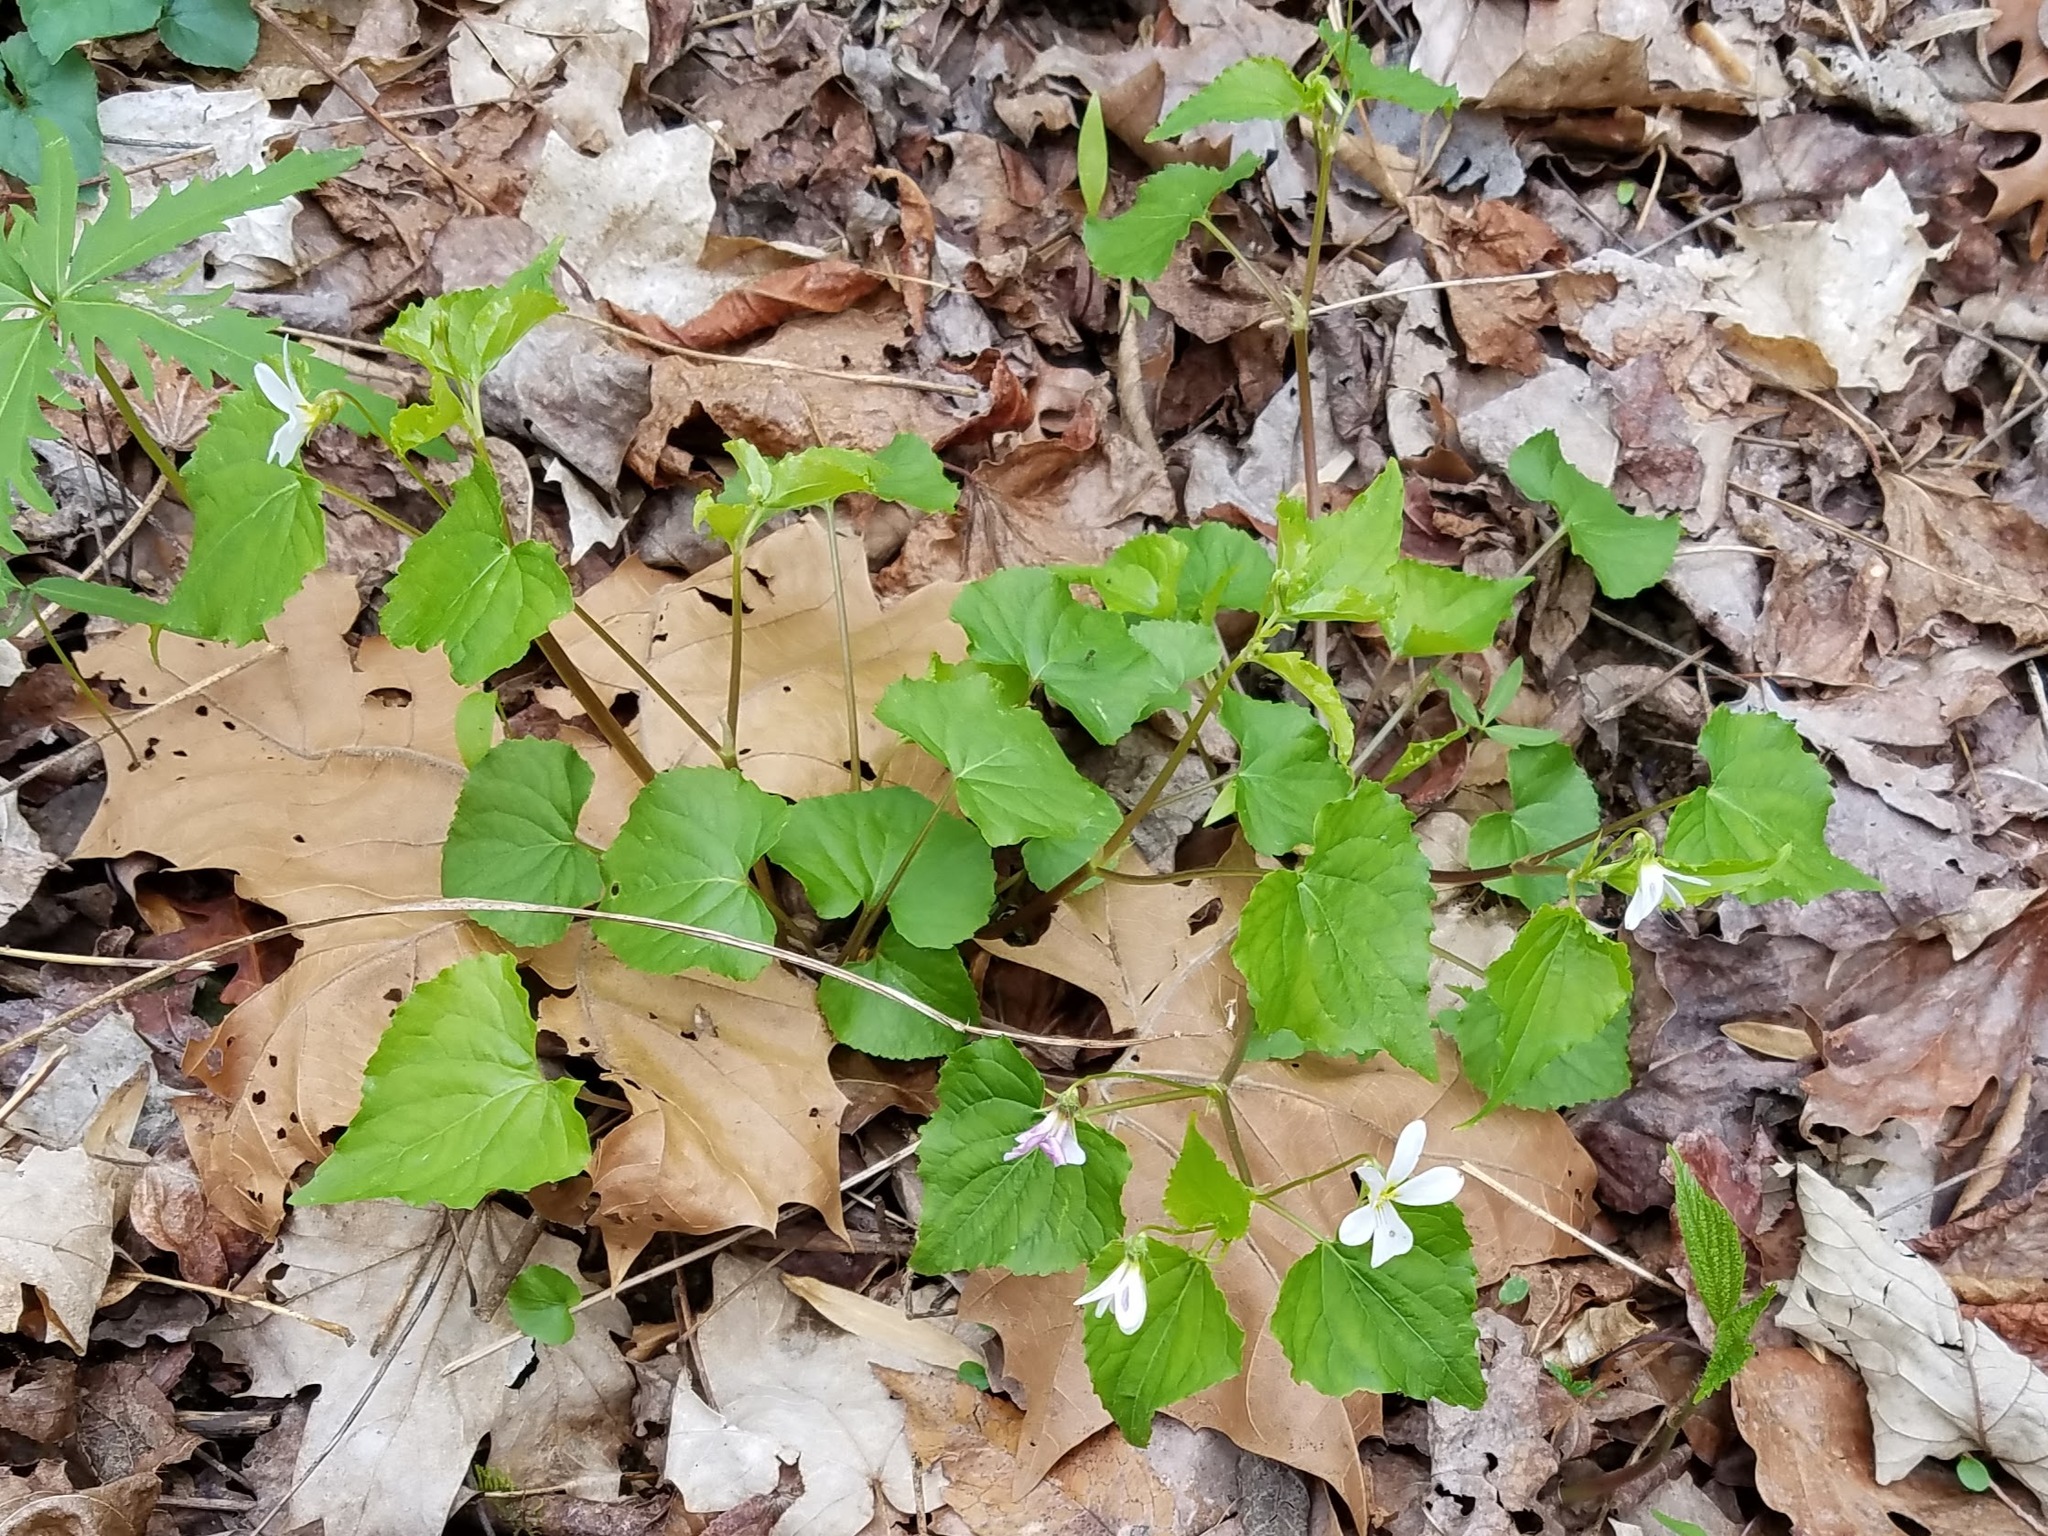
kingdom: Plantae
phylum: Tracheophyta
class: Magnoliopsida
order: Malpighiales
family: Violaceae
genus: Viola
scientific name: Viola canadensis
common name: Canada violet
